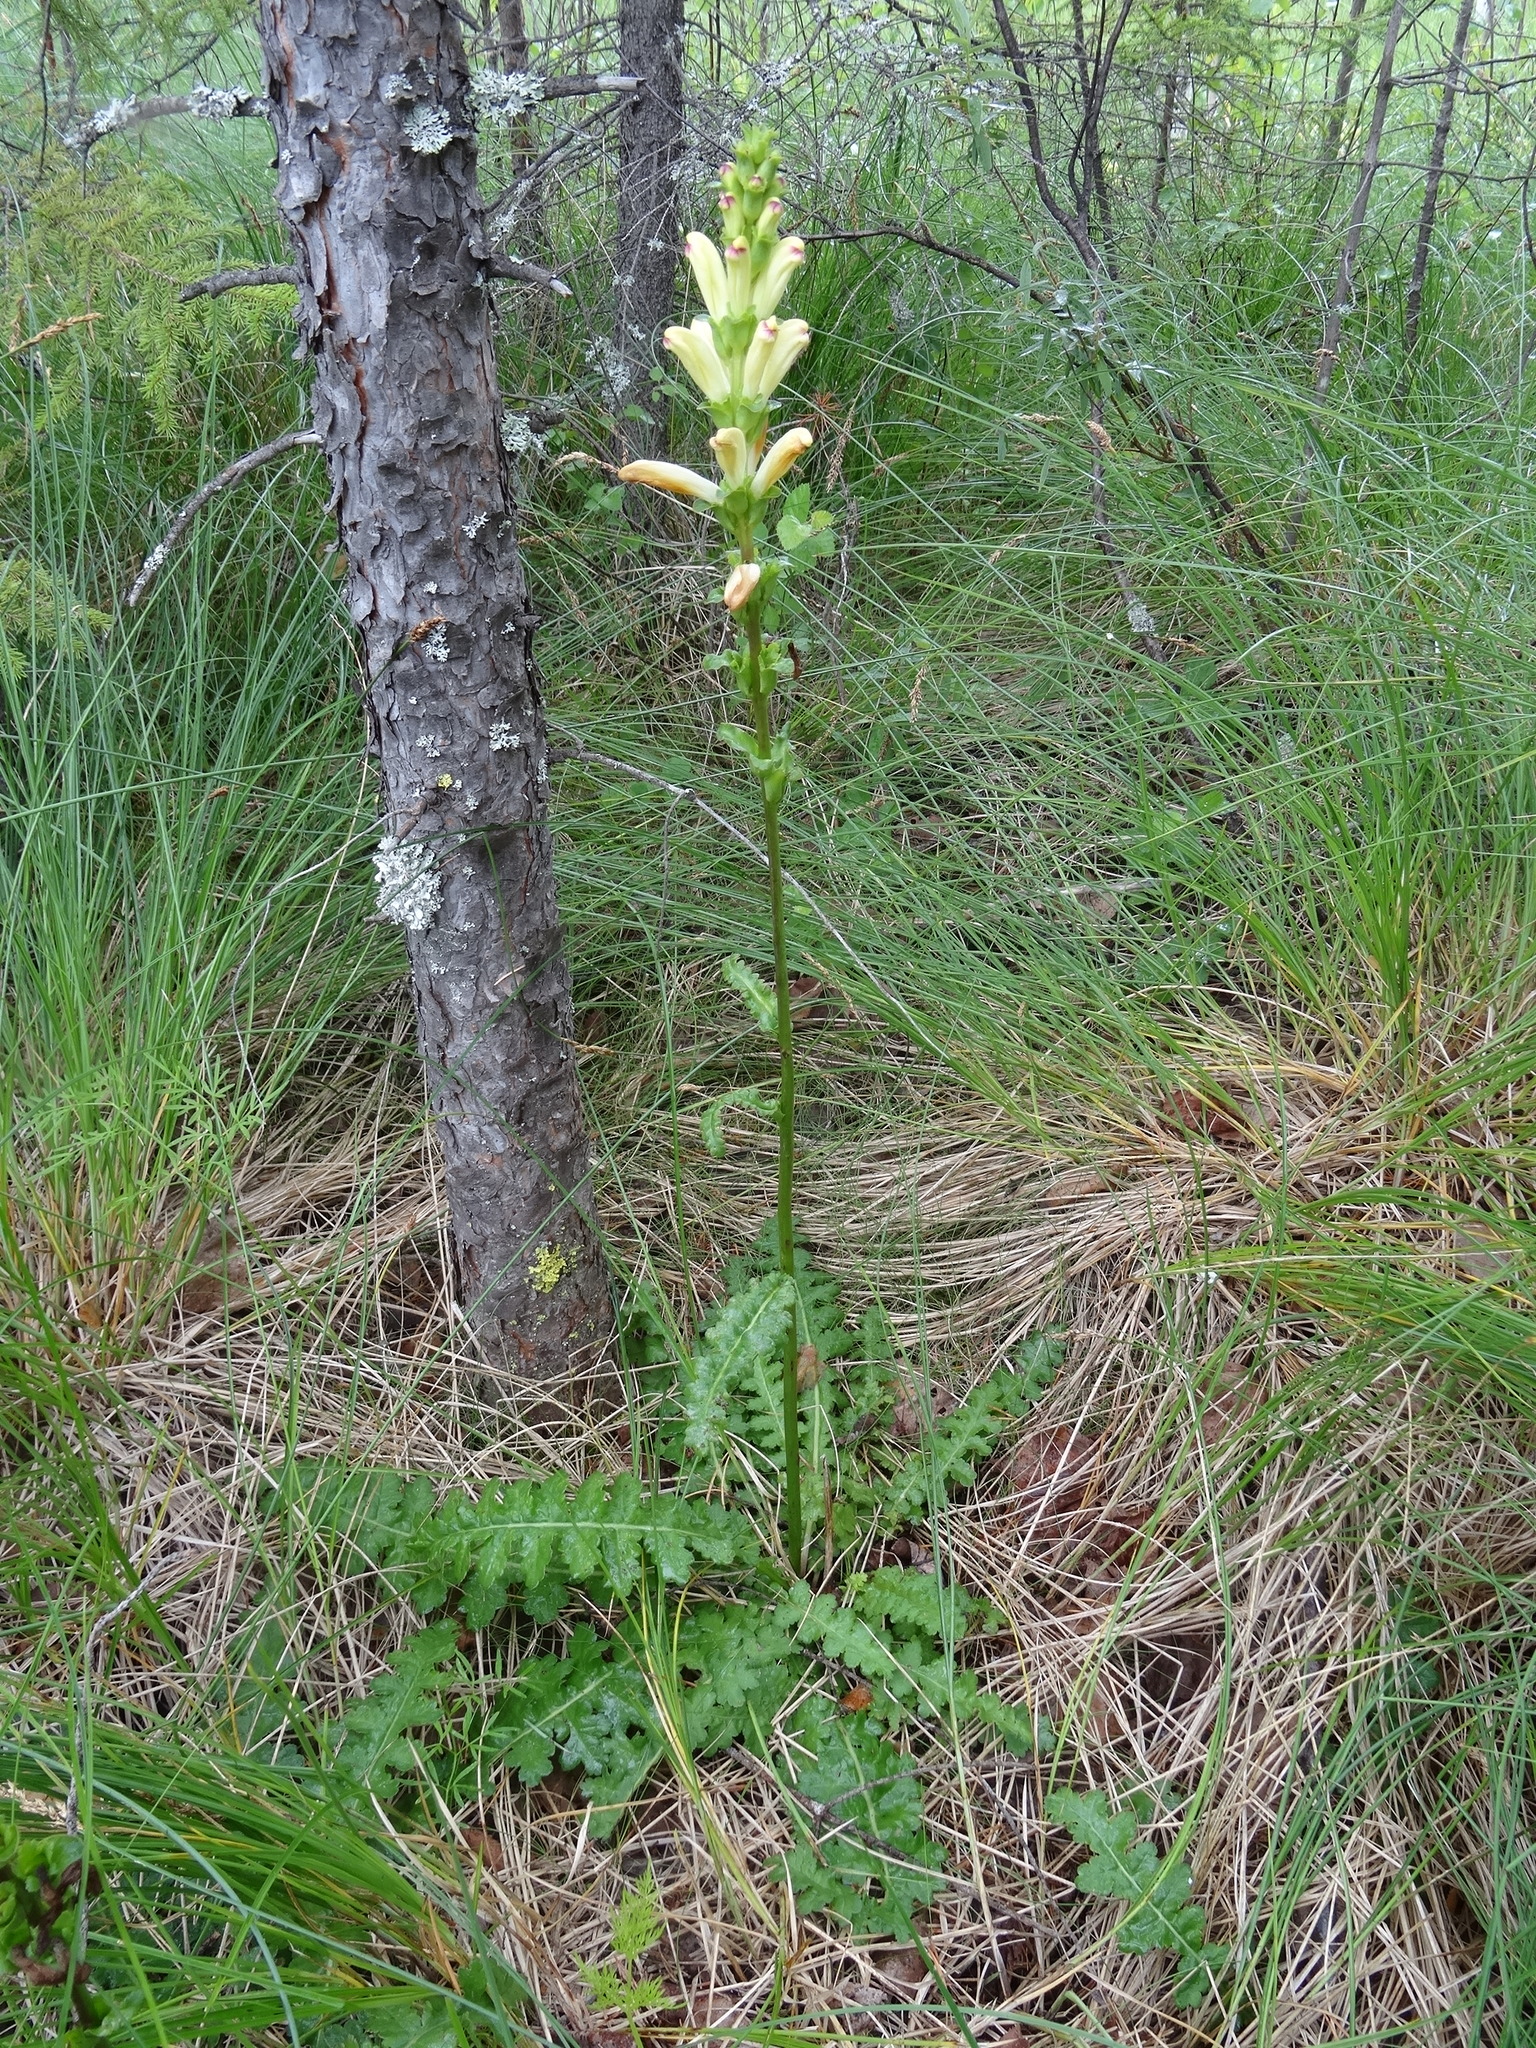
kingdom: Plantae
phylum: Tracheophyta
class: Magnoliopsida
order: Lamiales
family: Orobanchaceae
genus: Pedicularis
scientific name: Pedicularis sceptrum-carolinum
